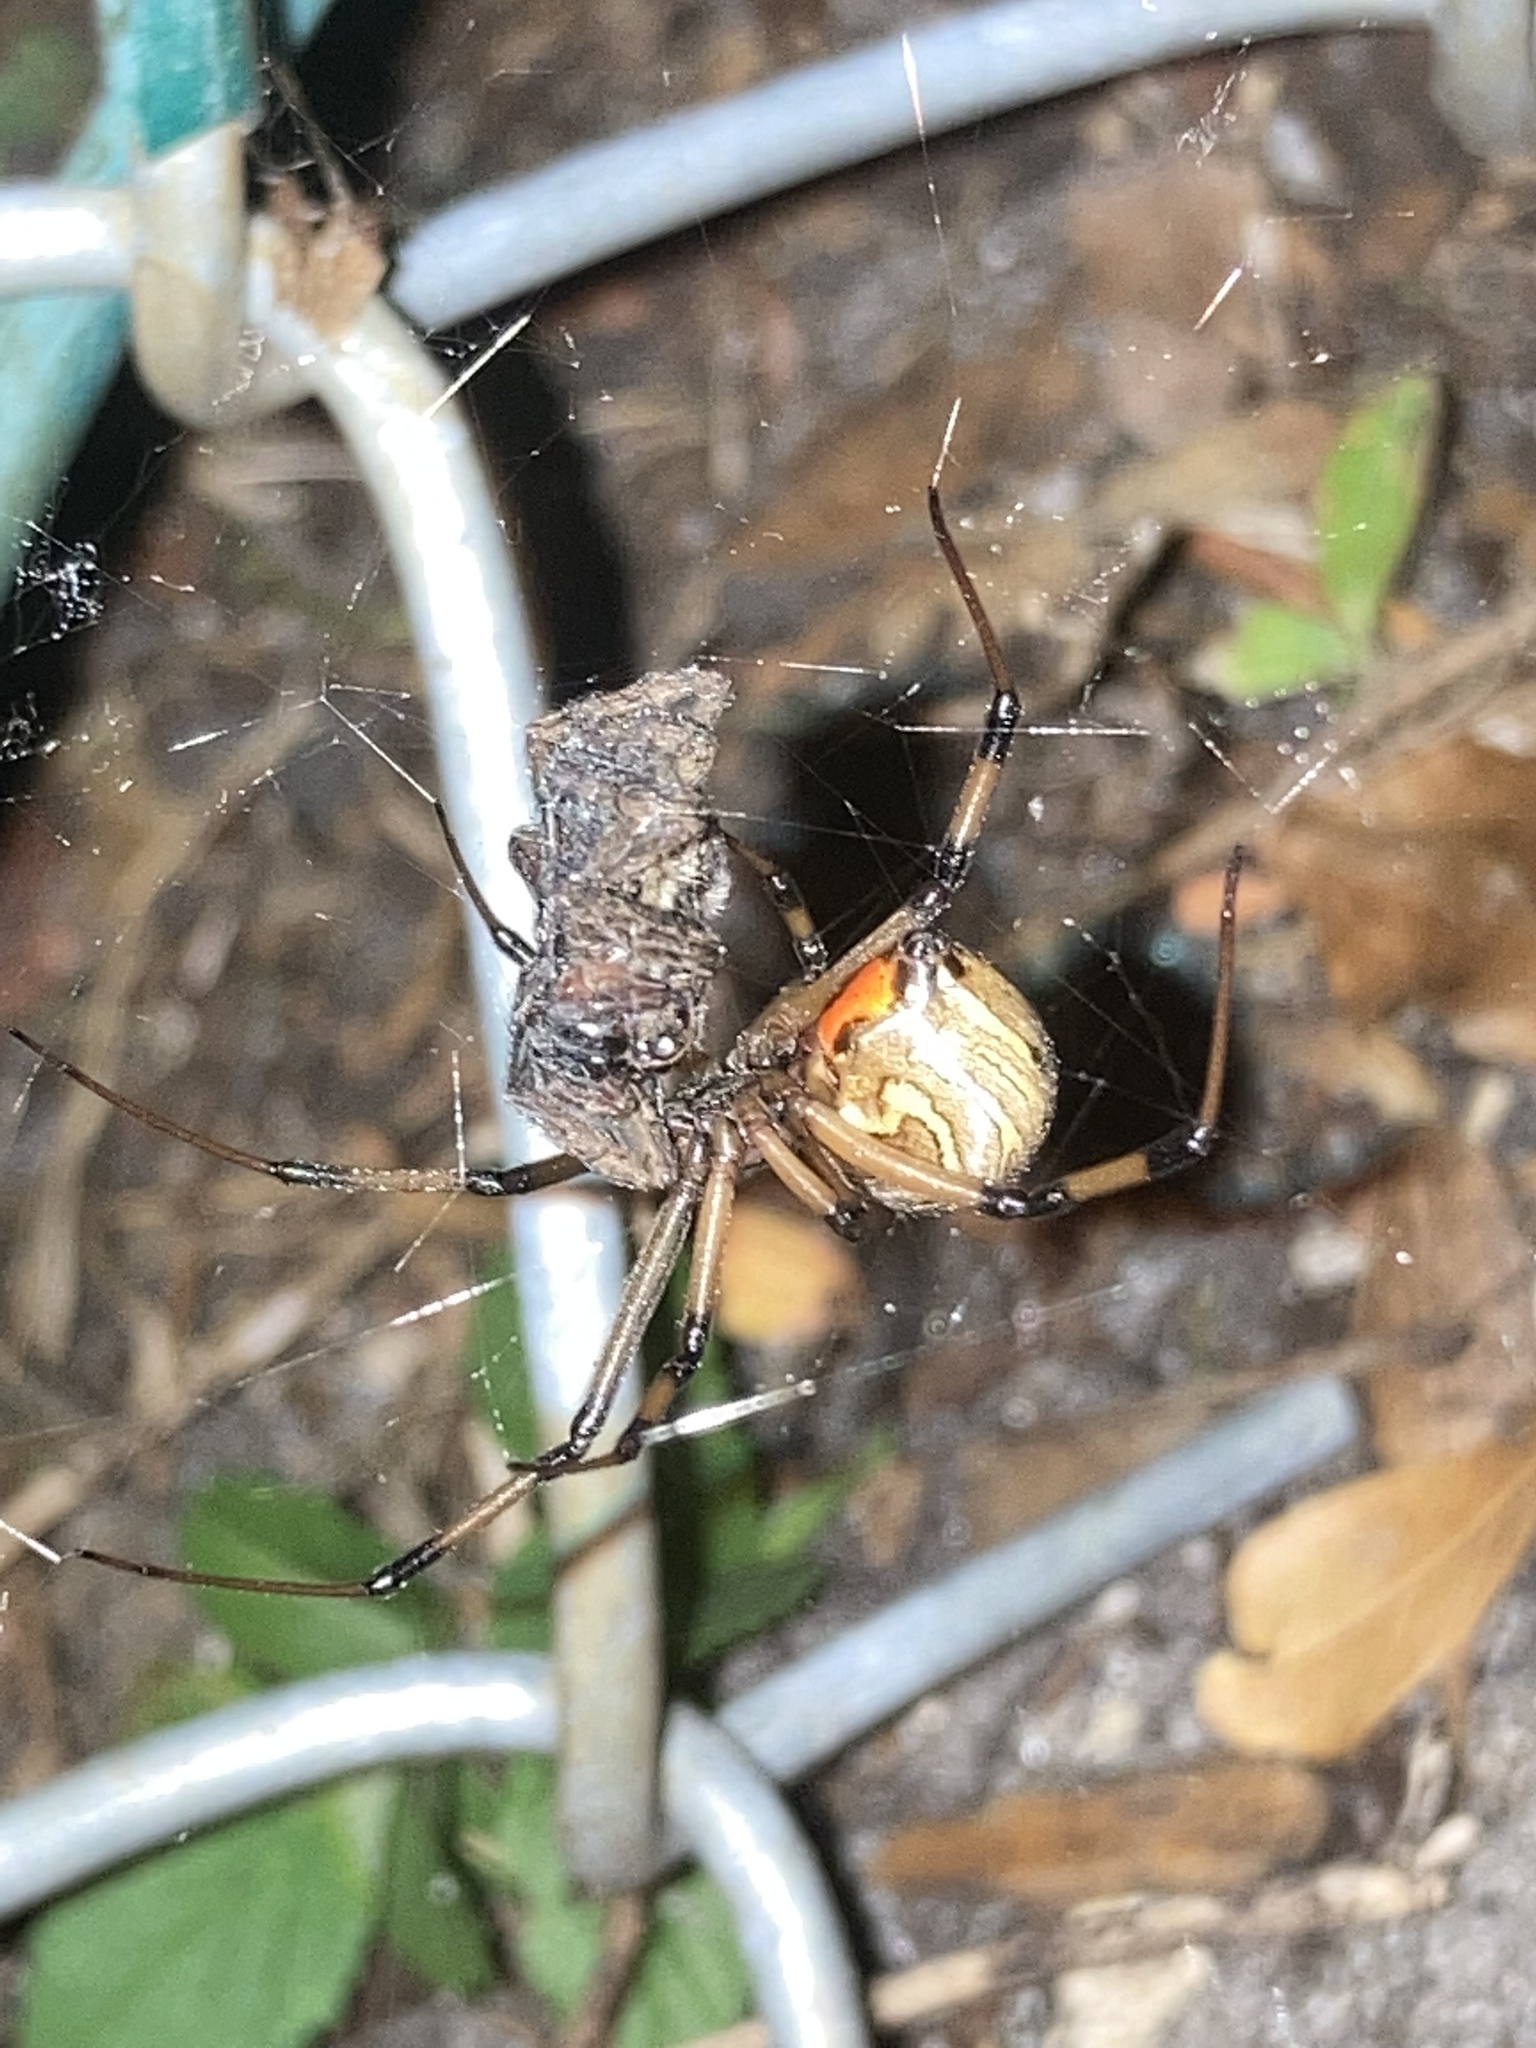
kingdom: Animalia
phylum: Arthropoda
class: Arachnida
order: Araneae
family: Theridiidae
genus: Latrodectus
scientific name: Latrodectus geometricus
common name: Brown widow spider
